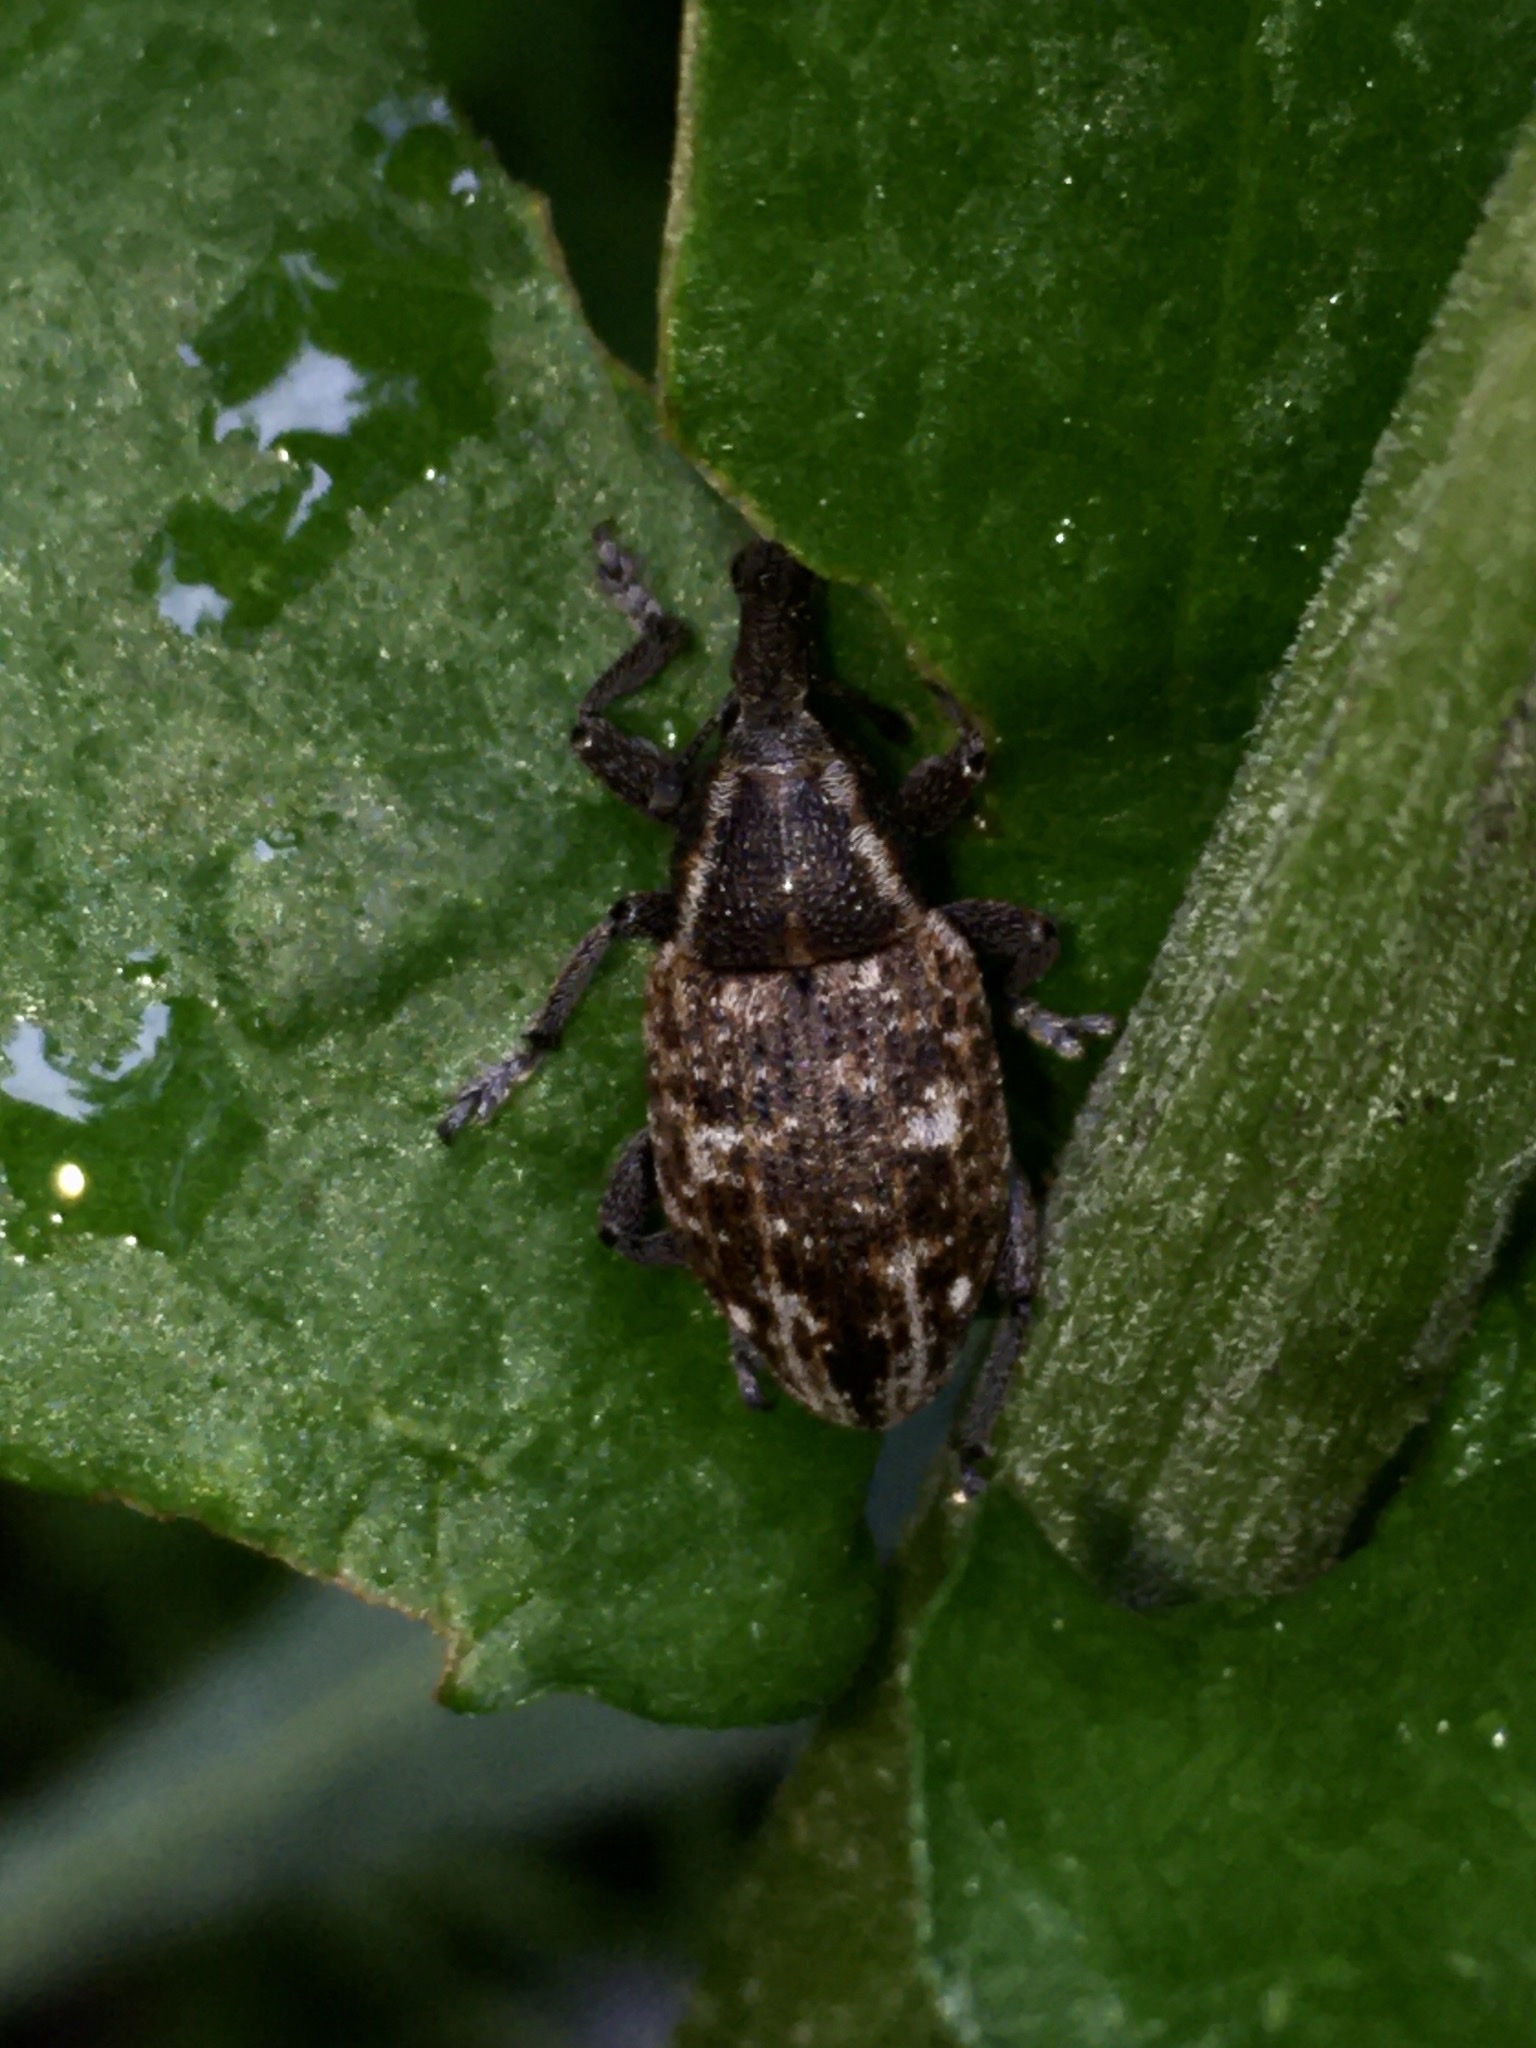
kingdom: Animalia
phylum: Arthropoda
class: Insecta
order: Coleoptera
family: Curculionidae
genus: Lepyrus
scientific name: Lepyrus capucinus
